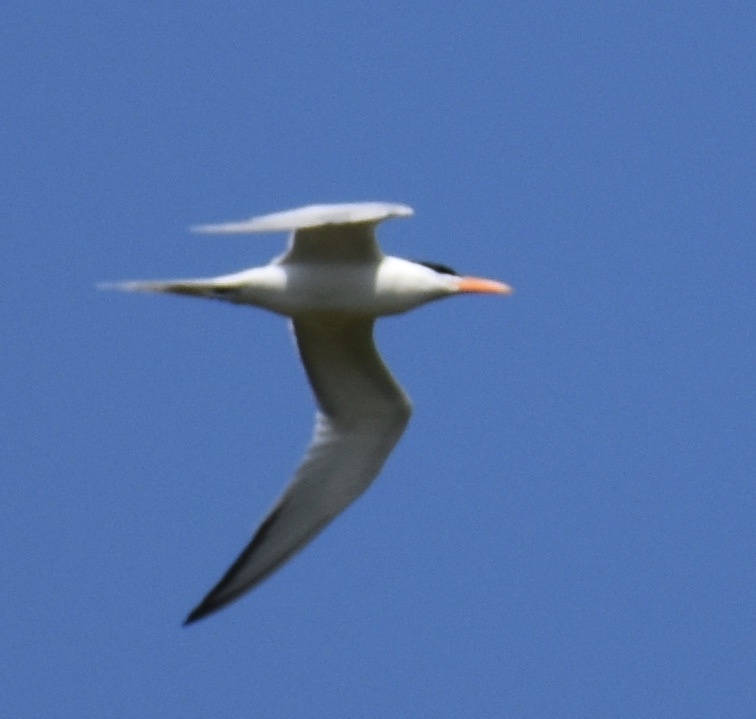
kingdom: Animalia
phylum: Chordata
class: Aves
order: Charadriiformes
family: Laridae
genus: Hydroprogne
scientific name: Hydroprogne caspia
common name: Caspian tern
